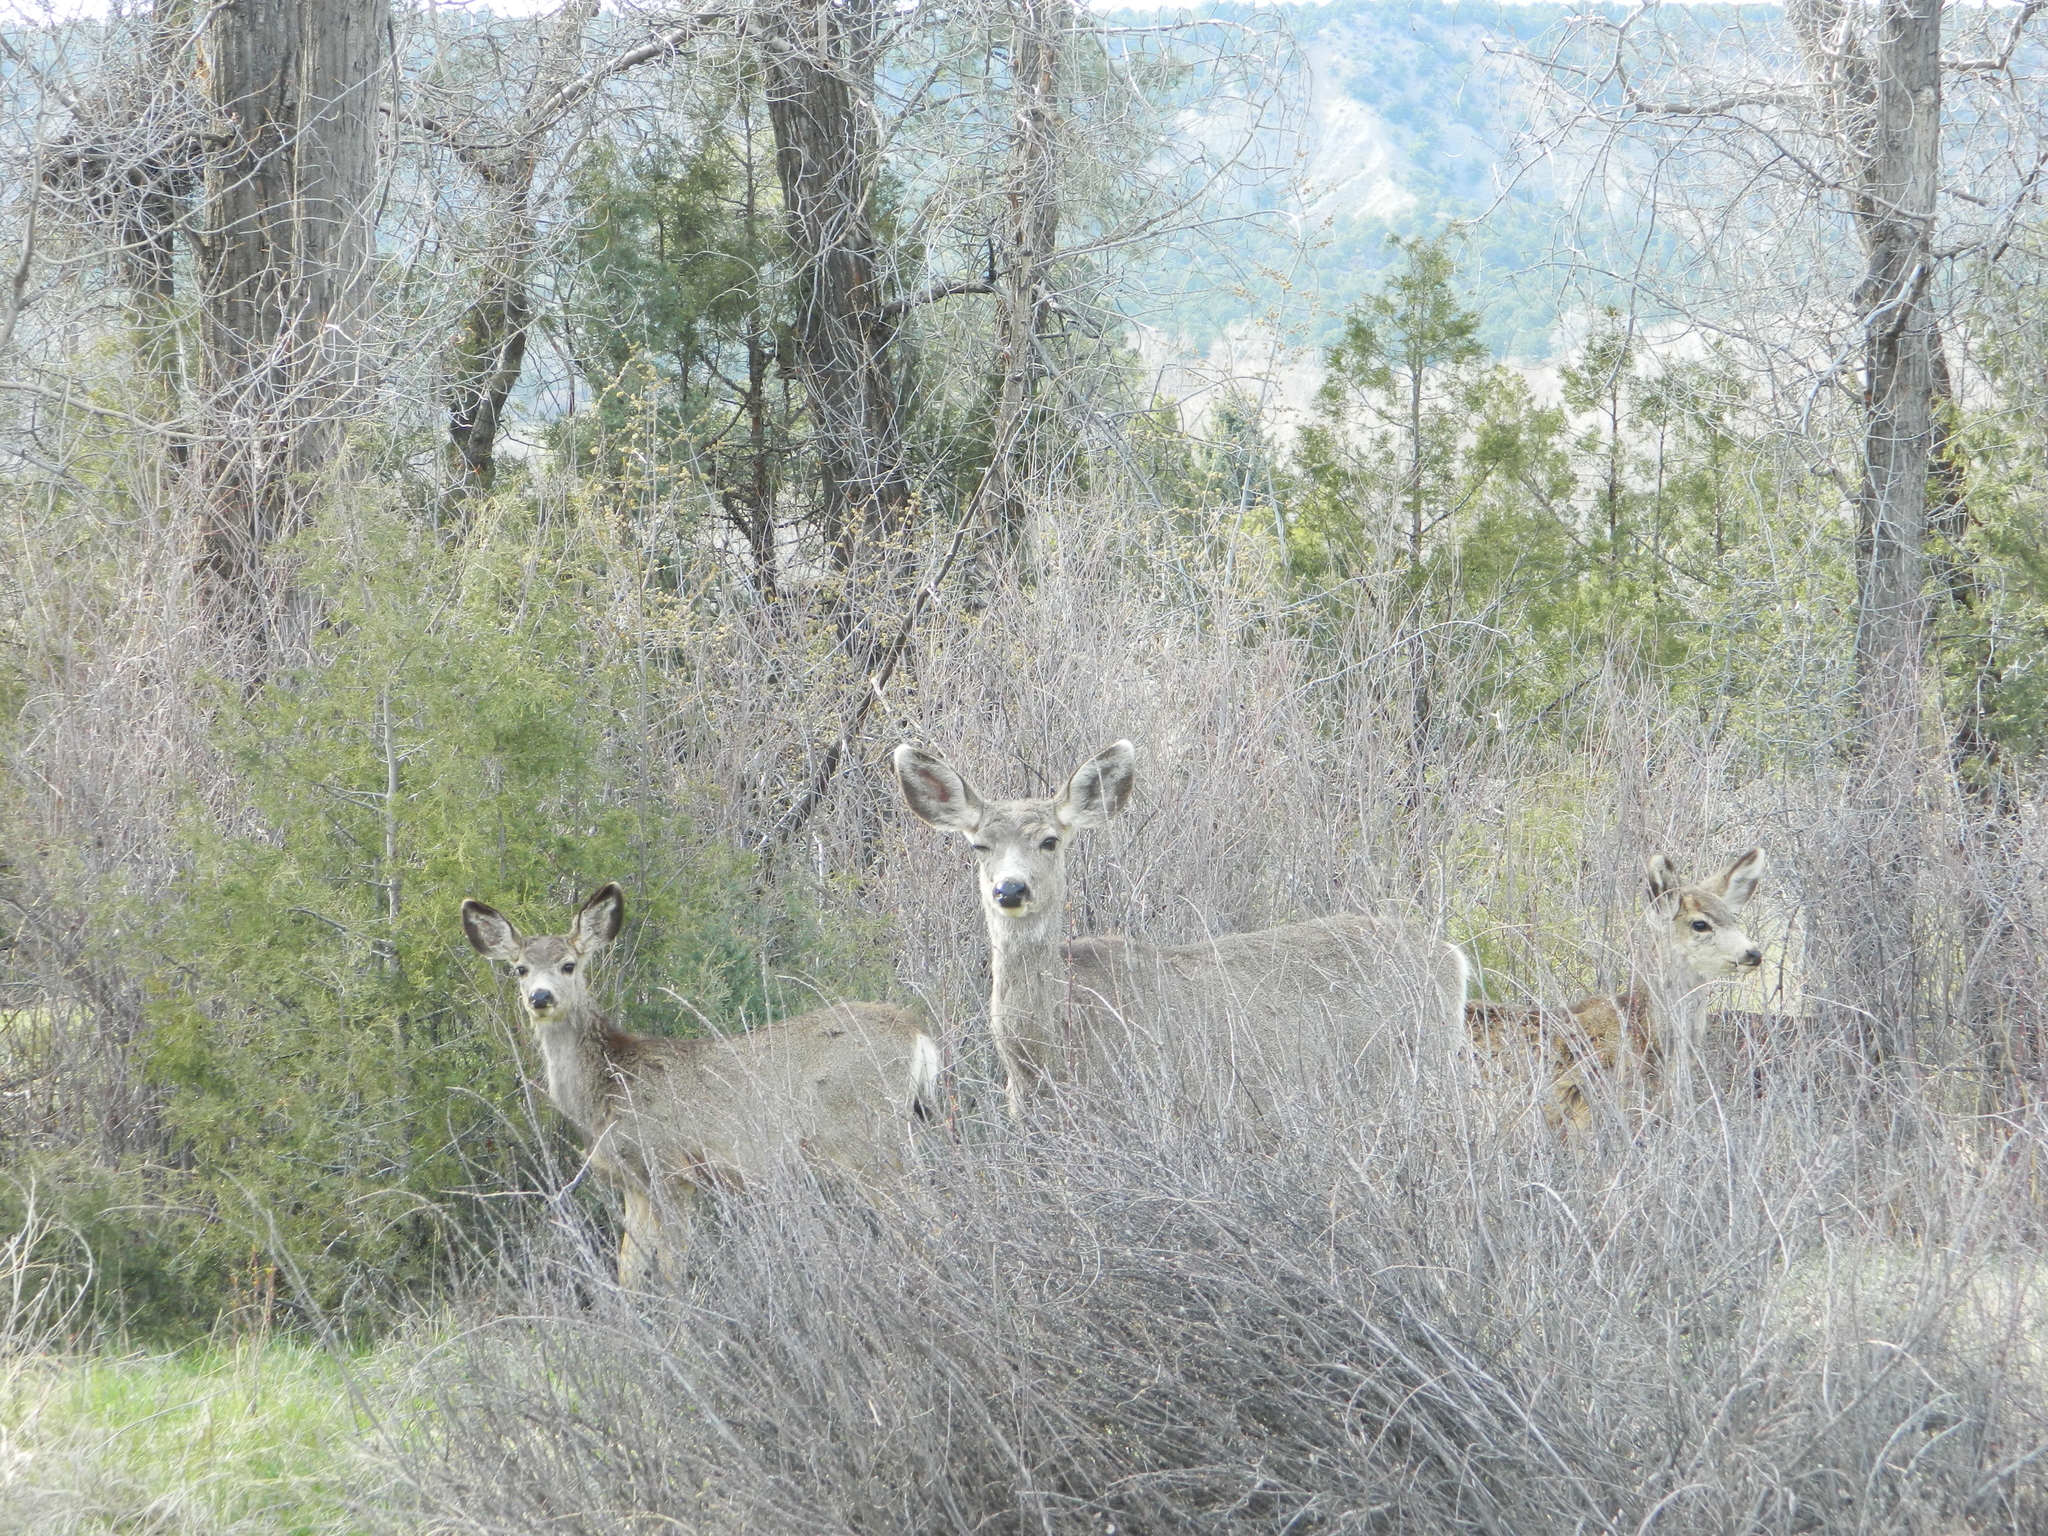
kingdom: Animalia
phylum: Chordata
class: Mammalia
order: Artiodactyla
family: Cervidae
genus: Odocoileus
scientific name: Odocoileus hemionus
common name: Mule deer
